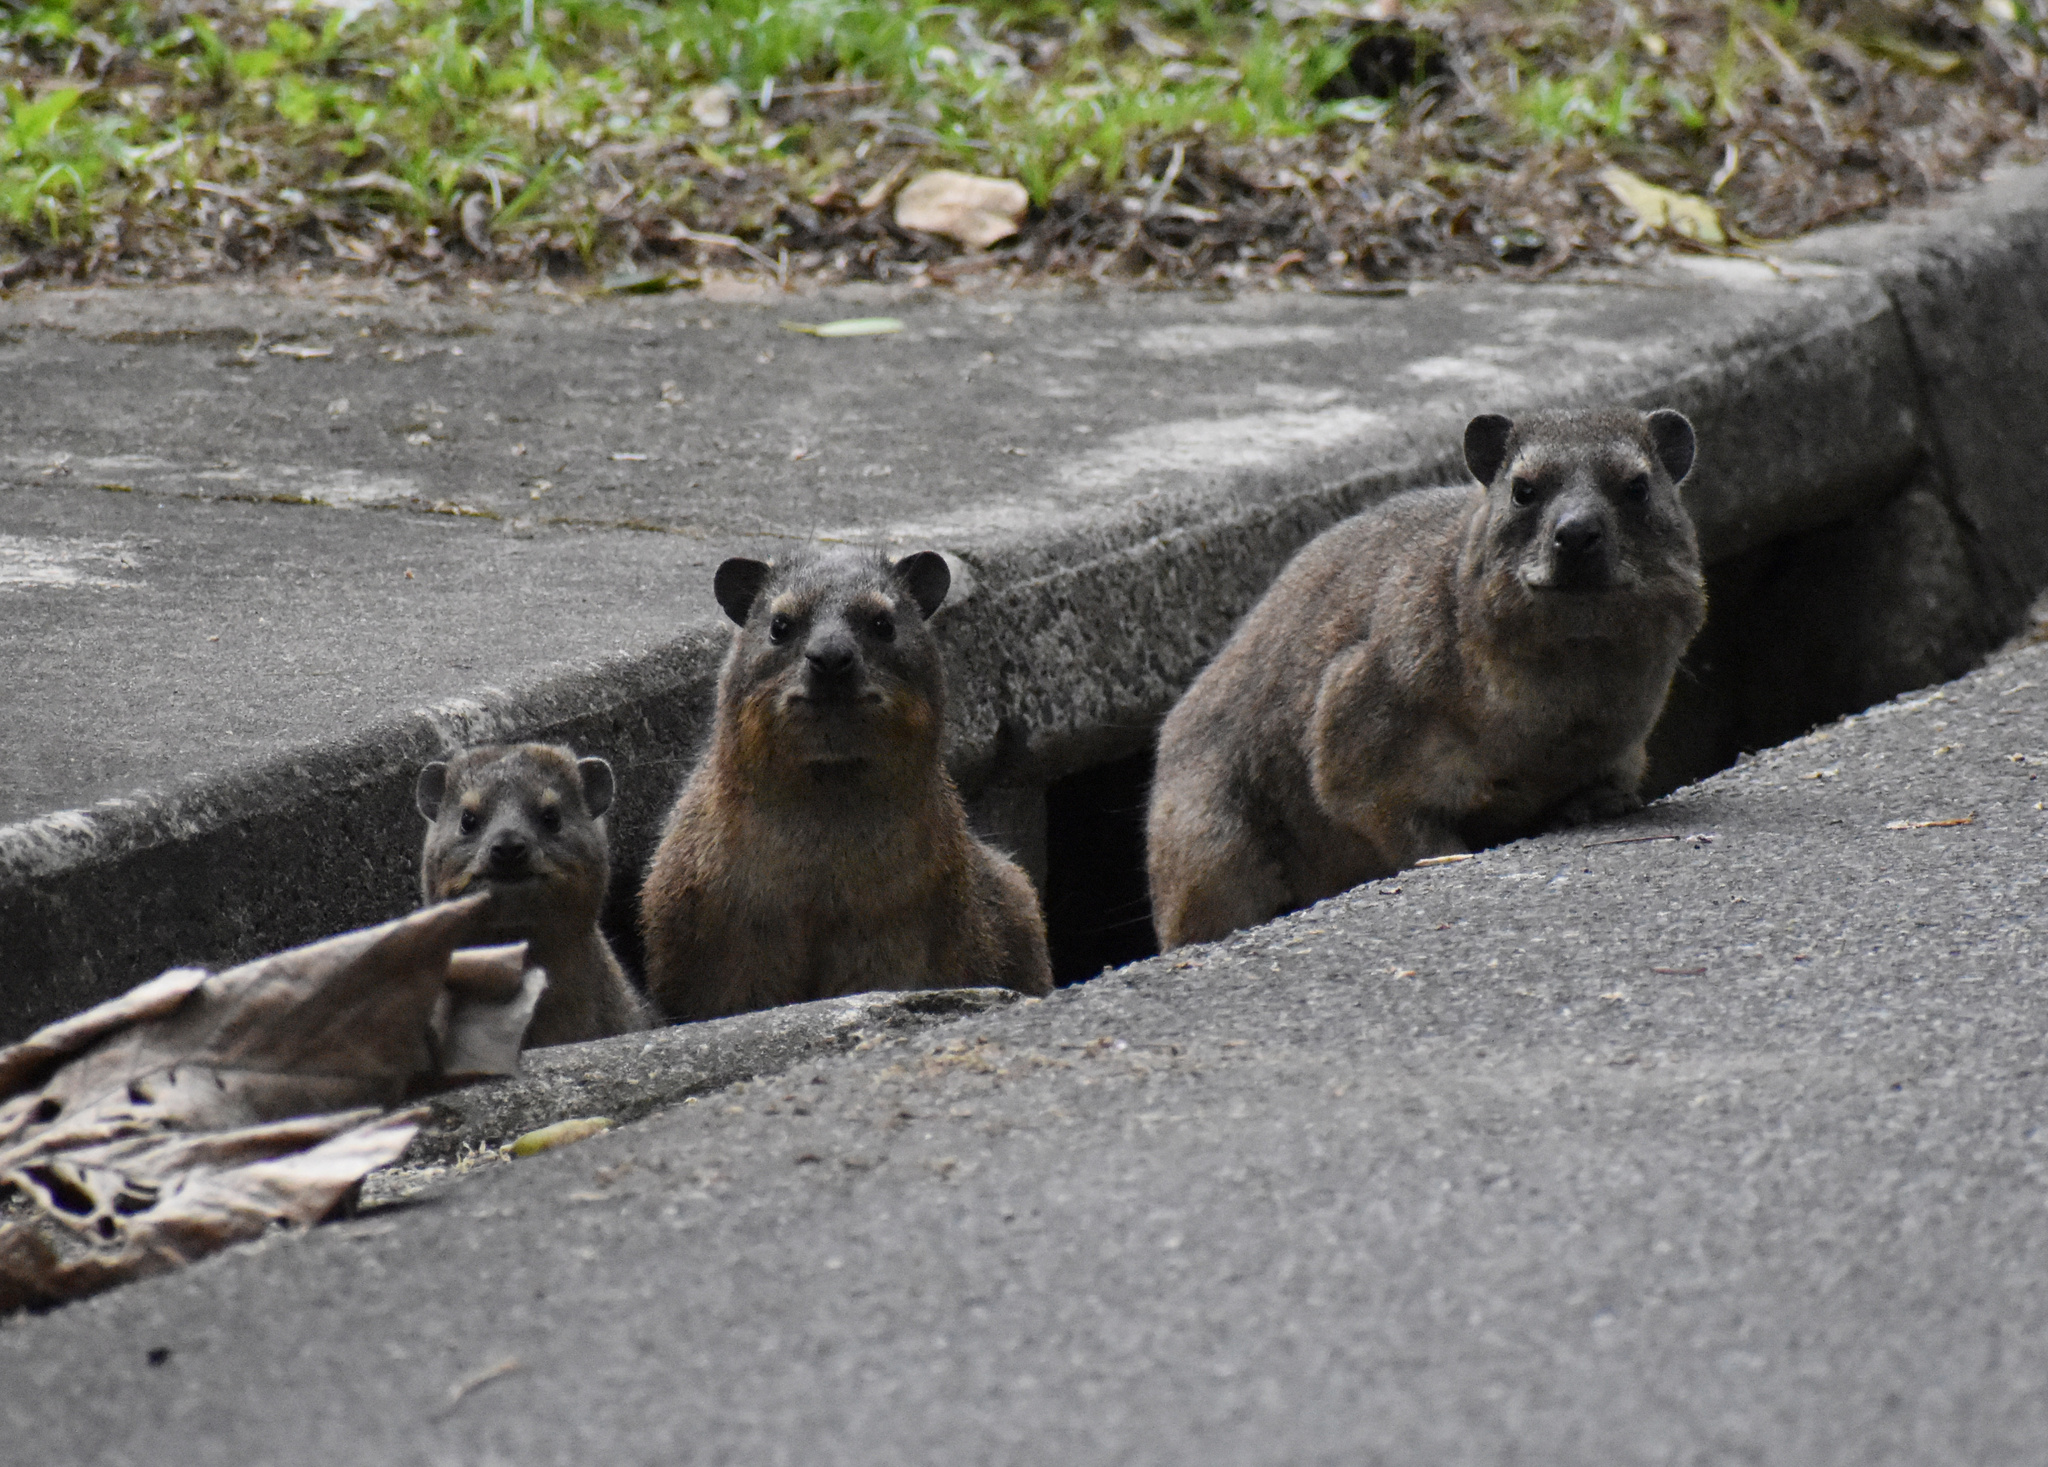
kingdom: Animalia
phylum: Chordata
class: Mammalia
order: Hyracoidea
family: Procaviidae
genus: Procavia
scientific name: Procavia capensis
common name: Rock hyrax
